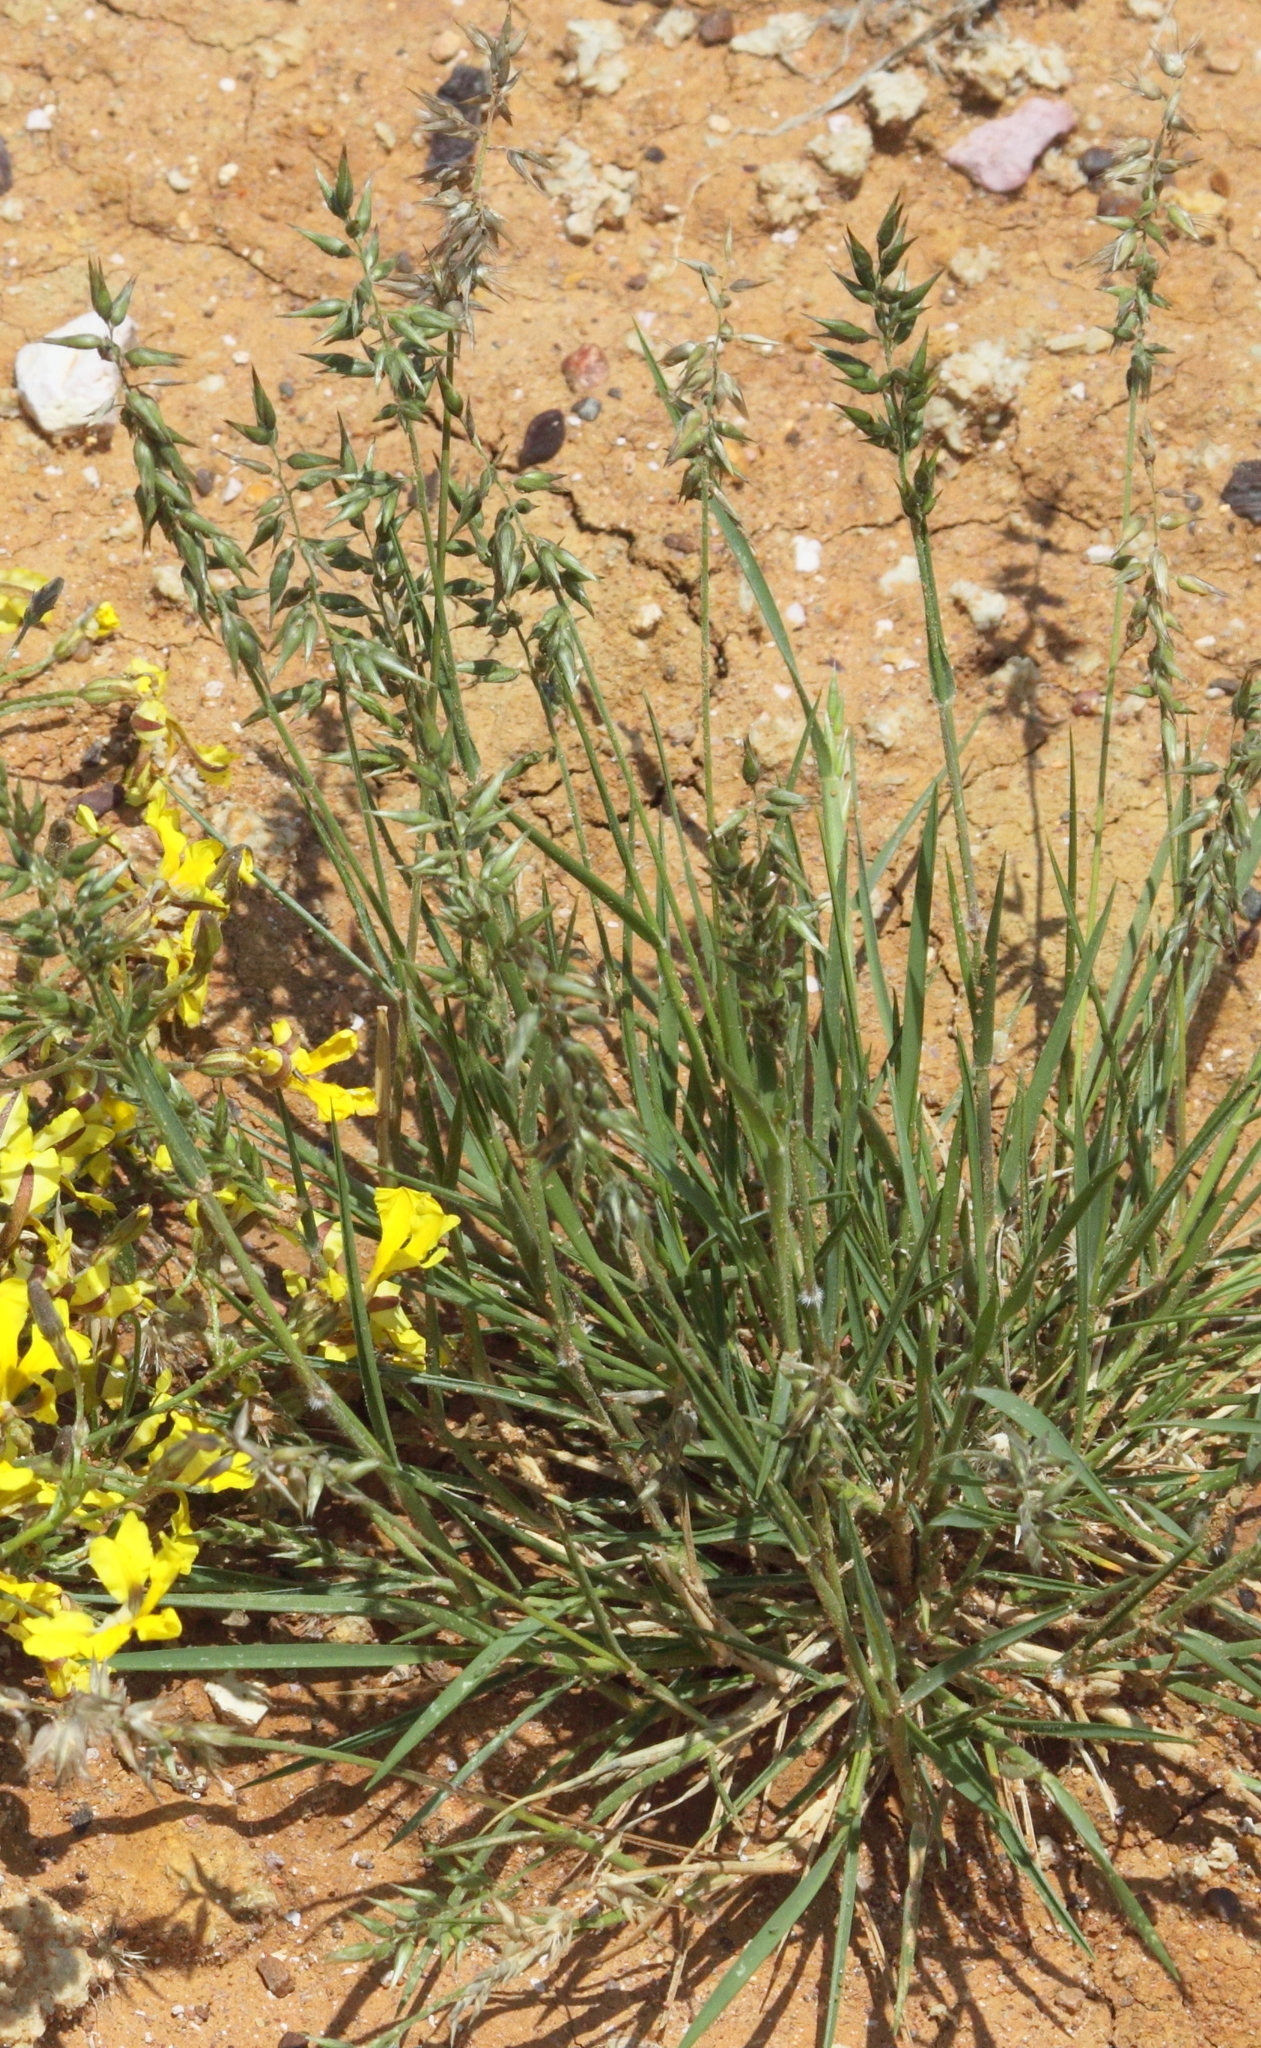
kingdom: Plantae
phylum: Tracheophyta
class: Liliopsida
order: Poales
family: Poaceae
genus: Enneapogon
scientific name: Enneapogon avenaceus
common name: Hairy oat grass
